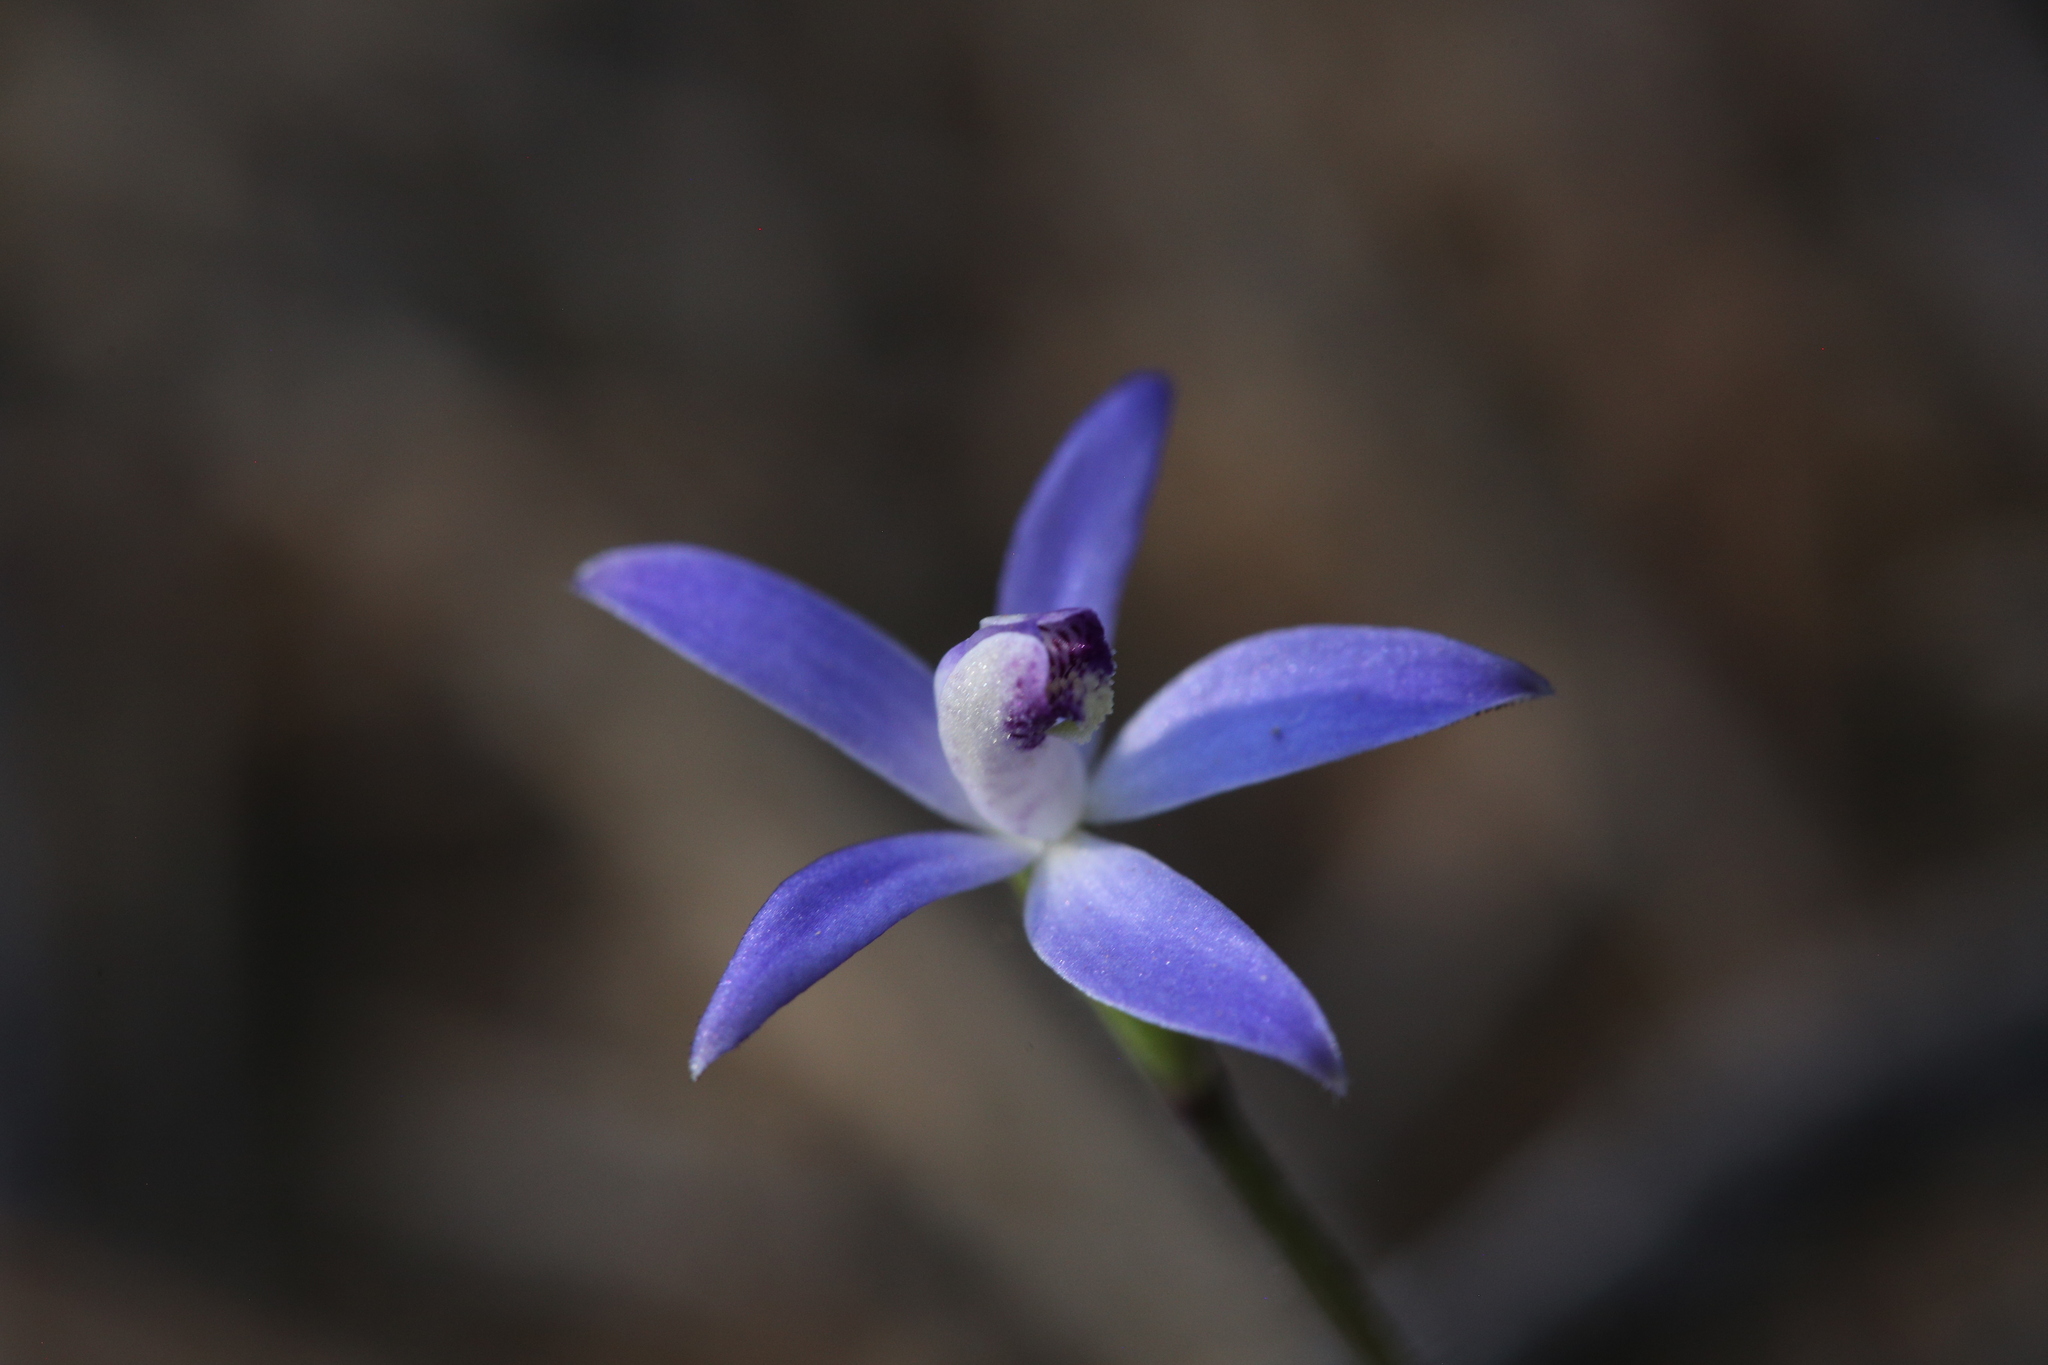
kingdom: Plantae
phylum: Tracheophyta
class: Liliopsida
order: Asparagales
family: Orchidaceae
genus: Caladenia
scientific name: Caladenia amplexans
